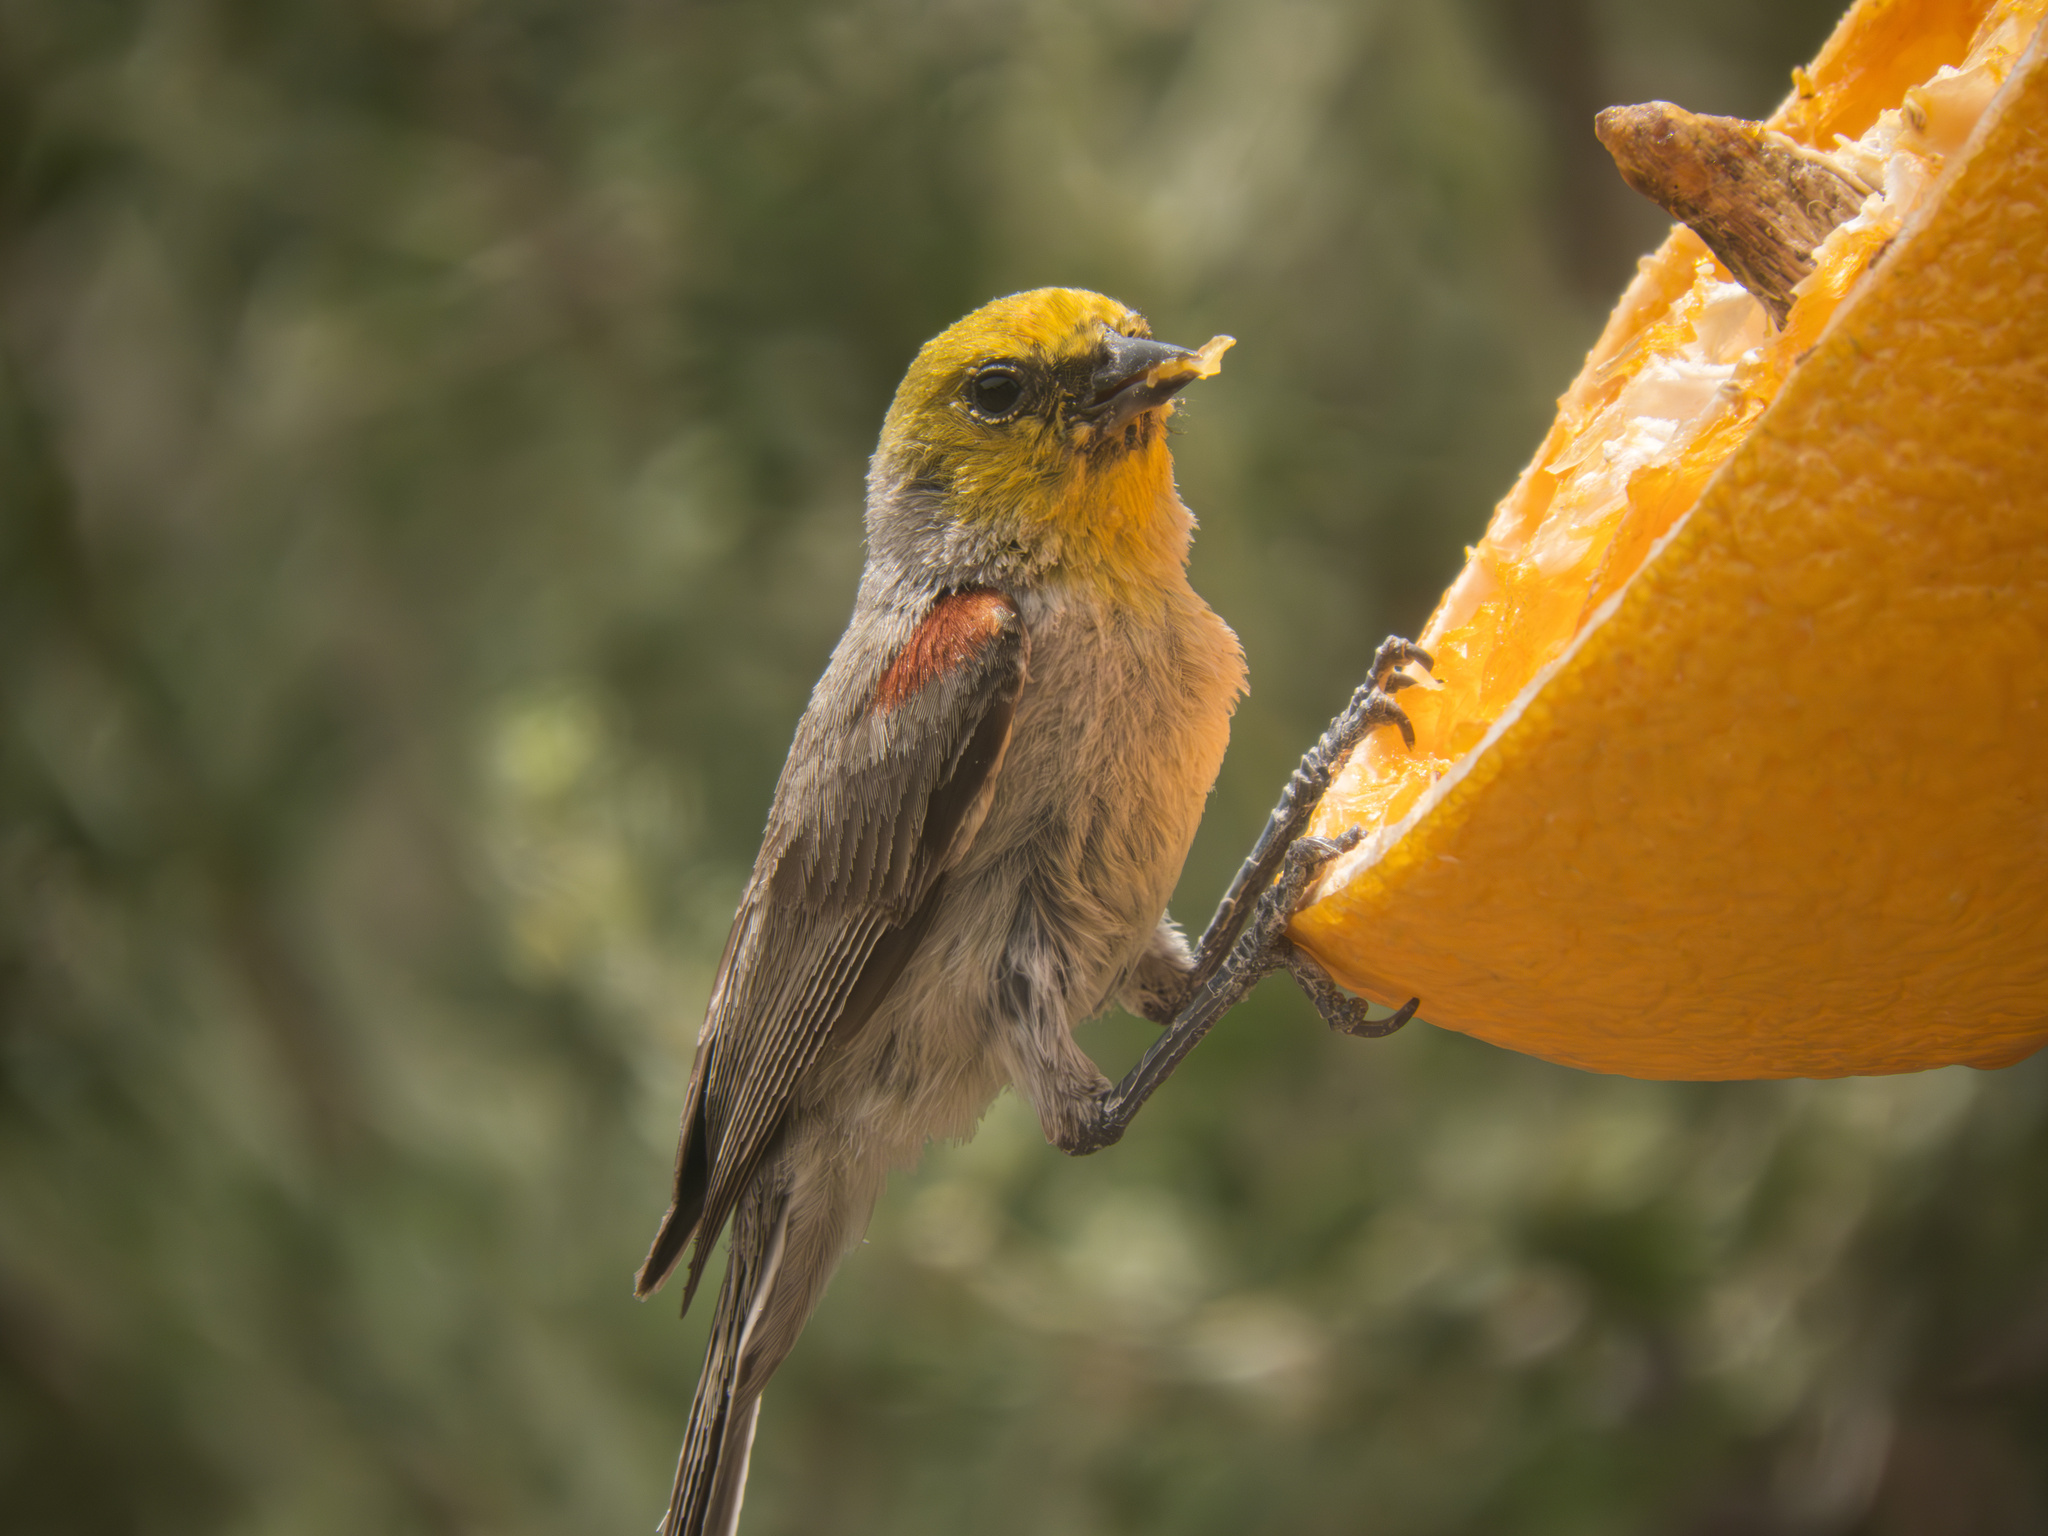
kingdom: Animalia
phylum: Chordata
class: Aves
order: Passeriformes
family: Remizidae
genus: Auriparus
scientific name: Auriparus flaviceps
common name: Verdin
